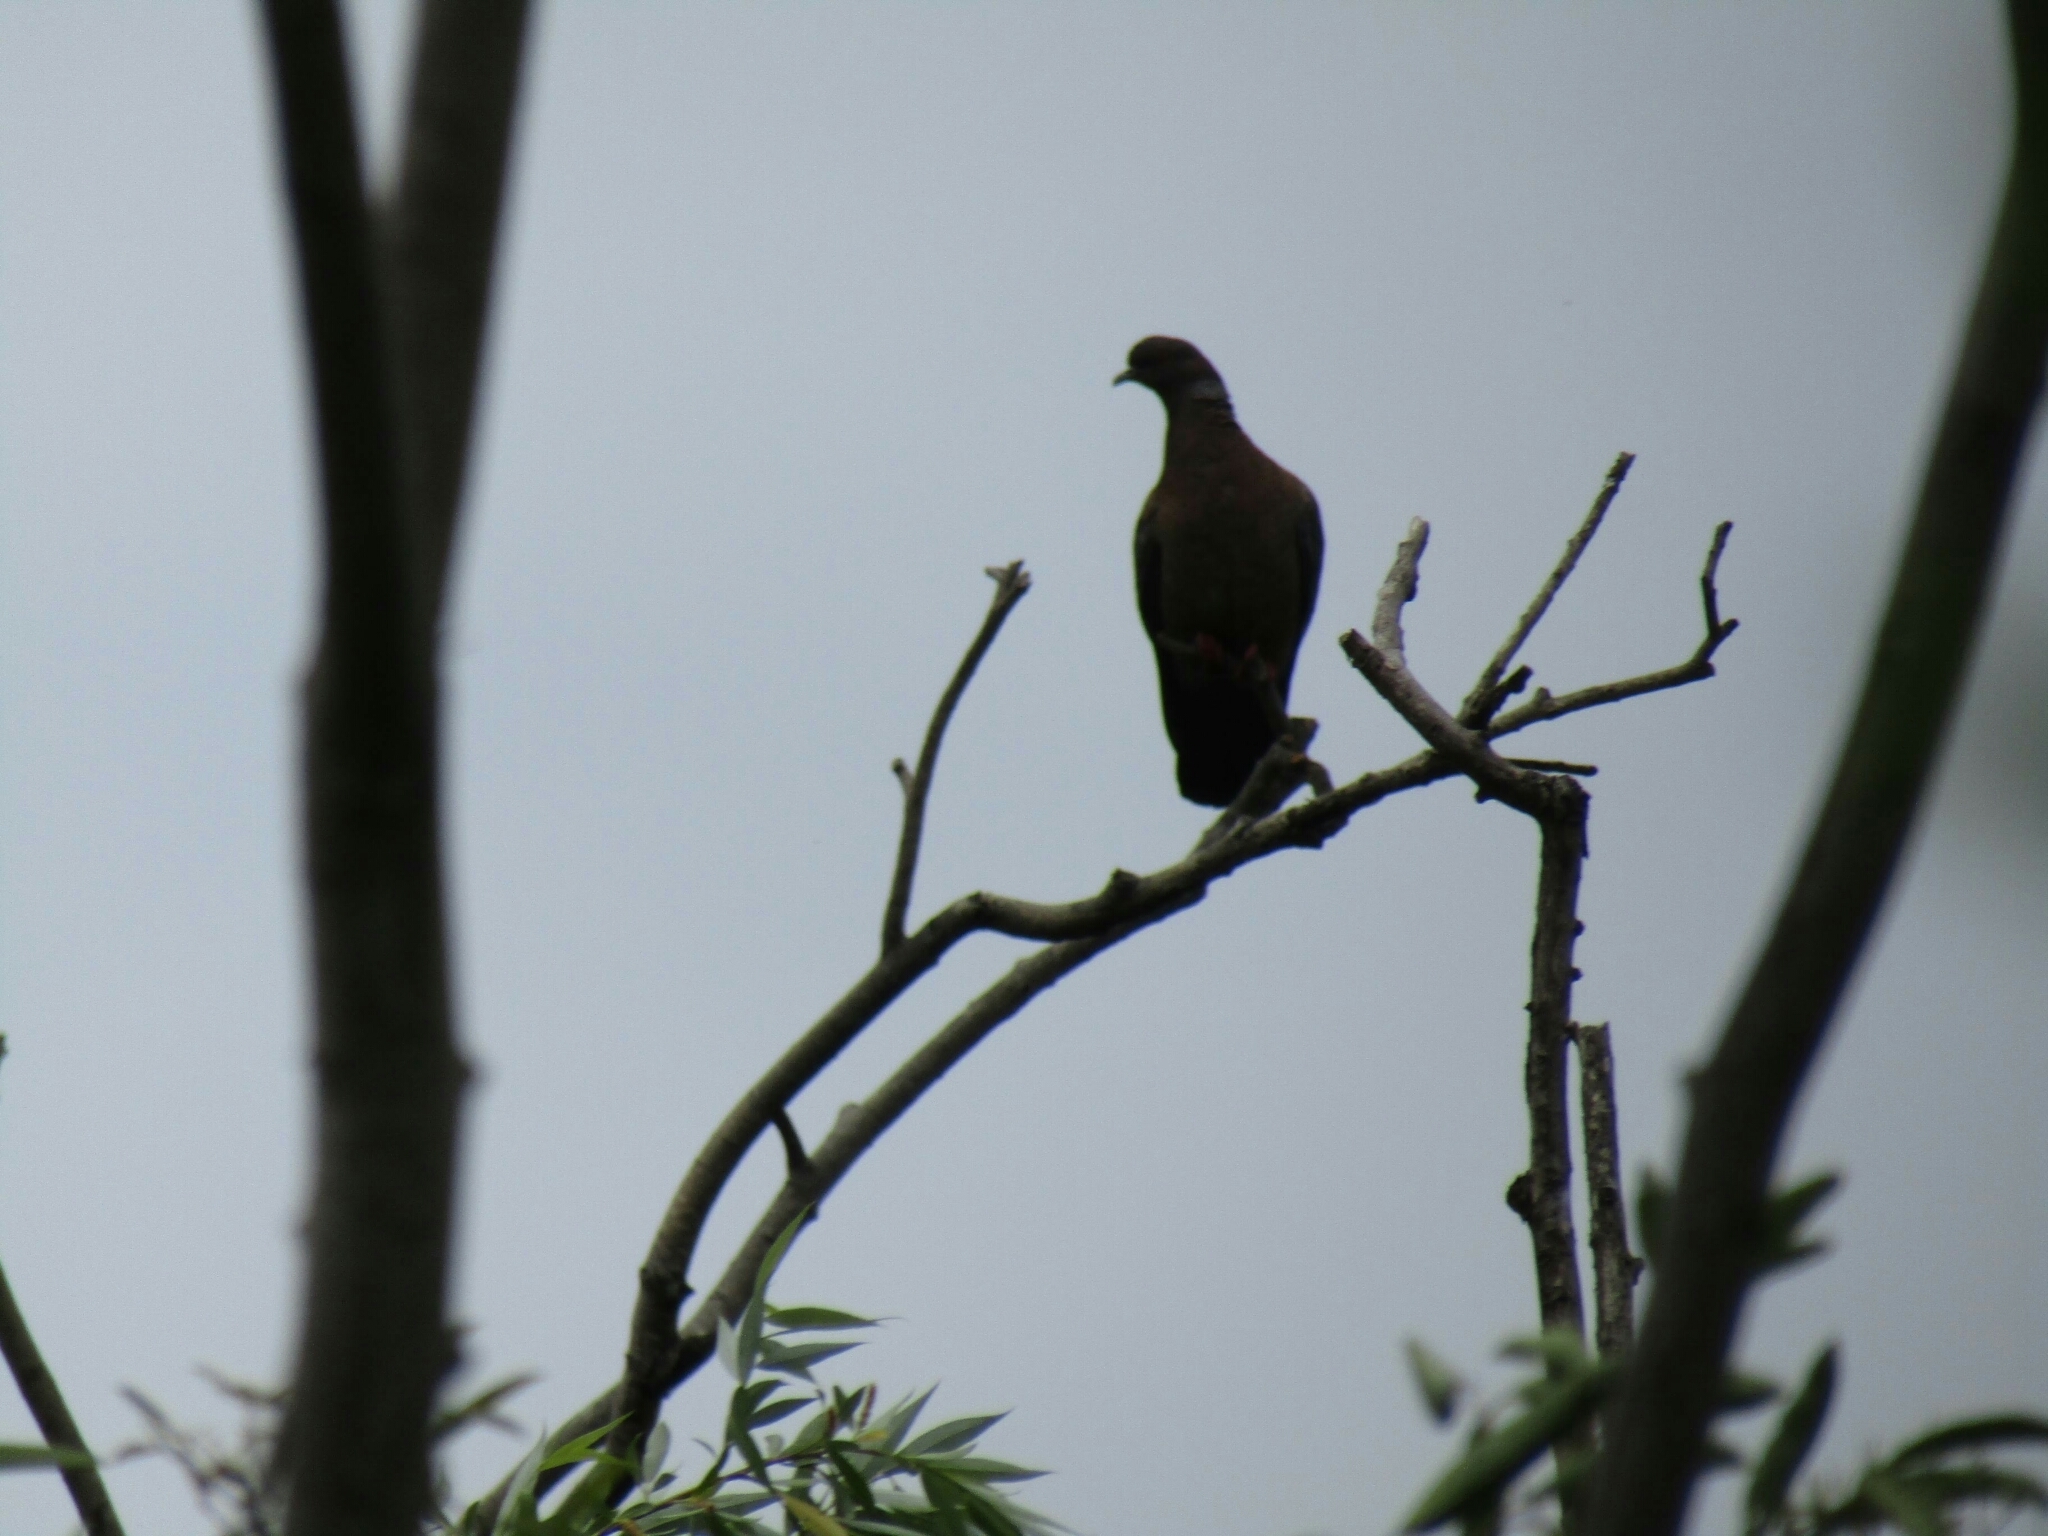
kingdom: Animalia
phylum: Chordata
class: Aves
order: Columbiformes
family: Columbidae
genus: Patagioenas
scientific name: Patagioenas picazuro
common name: Picazuro pigeon
